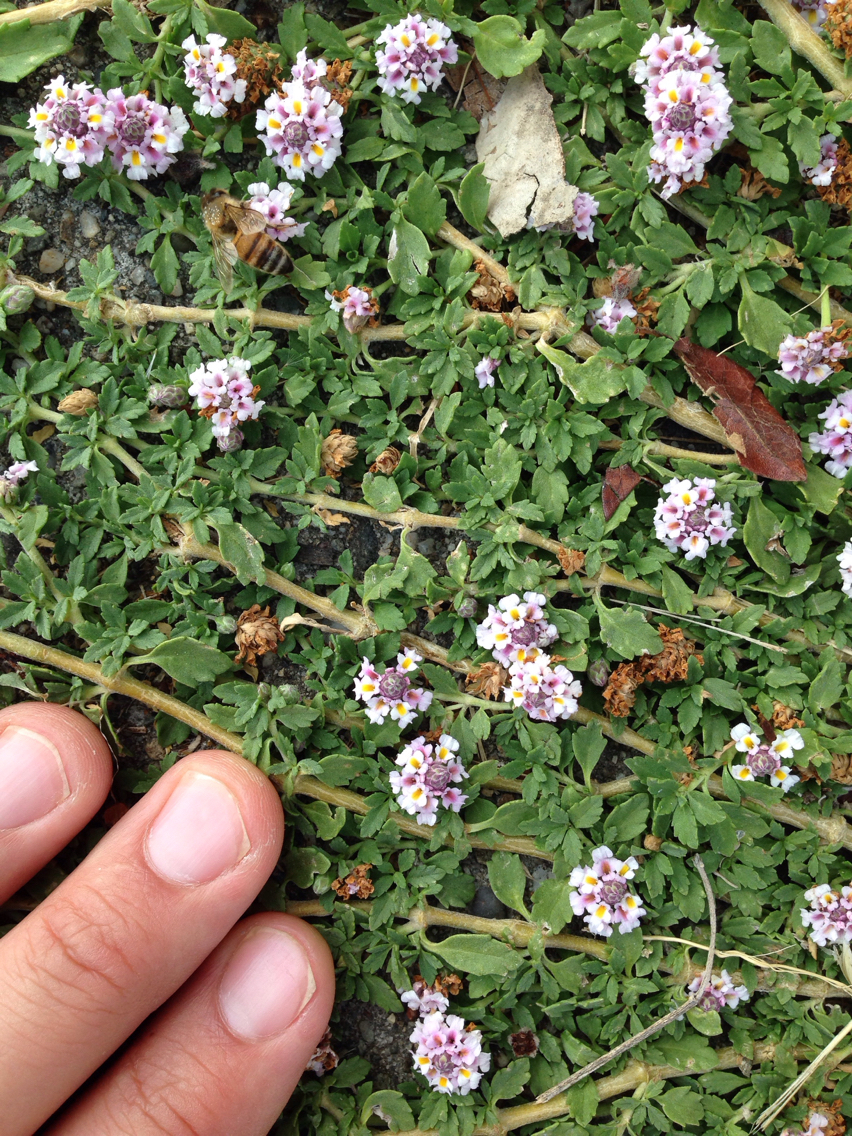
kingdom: Plantae
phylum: Tracheophyta
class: Magnoliopsida
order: Lamiales
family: Verbenaceae
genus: Phyla
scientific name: Phyla nodiflora
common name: Frogfruit
